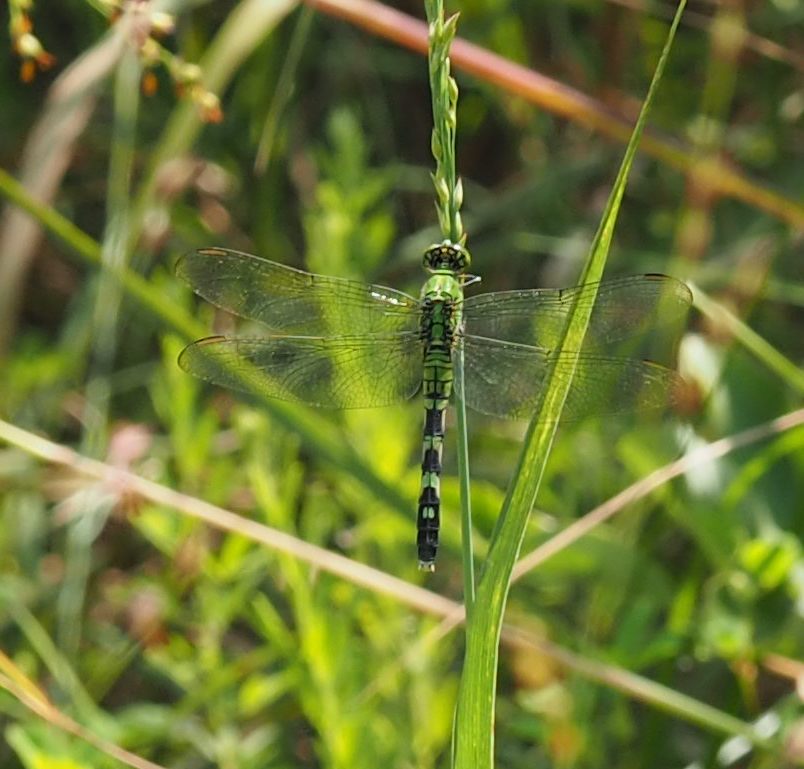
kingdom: Animalia
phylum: Arthropoda
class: Insecta
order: Odonata
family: Libellulidae
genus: Erythemis
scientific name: Erythemis simplicicollis
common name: Eastern pondhawk
